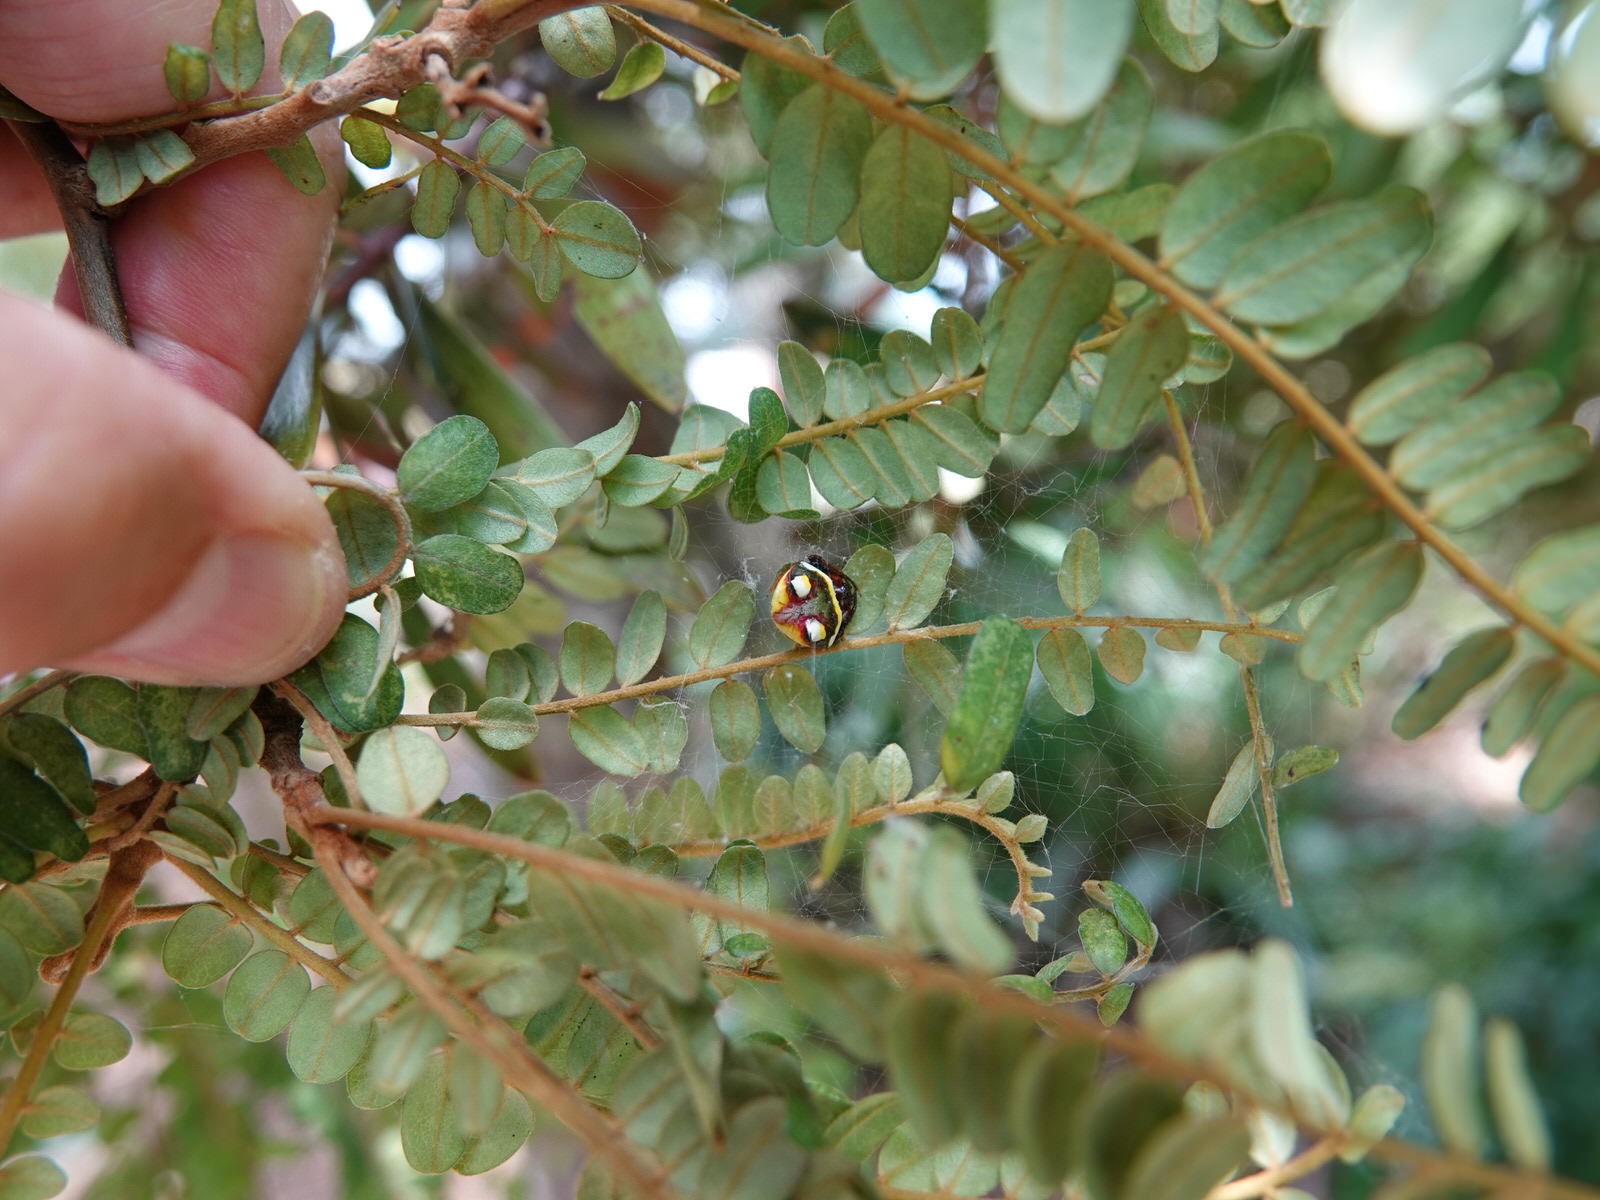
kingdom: Animalia
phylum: Arthropoda
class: Arachnida
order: Araneae
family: Araneidae
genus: Poecilopachys
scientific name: Poecilopachys australasia
